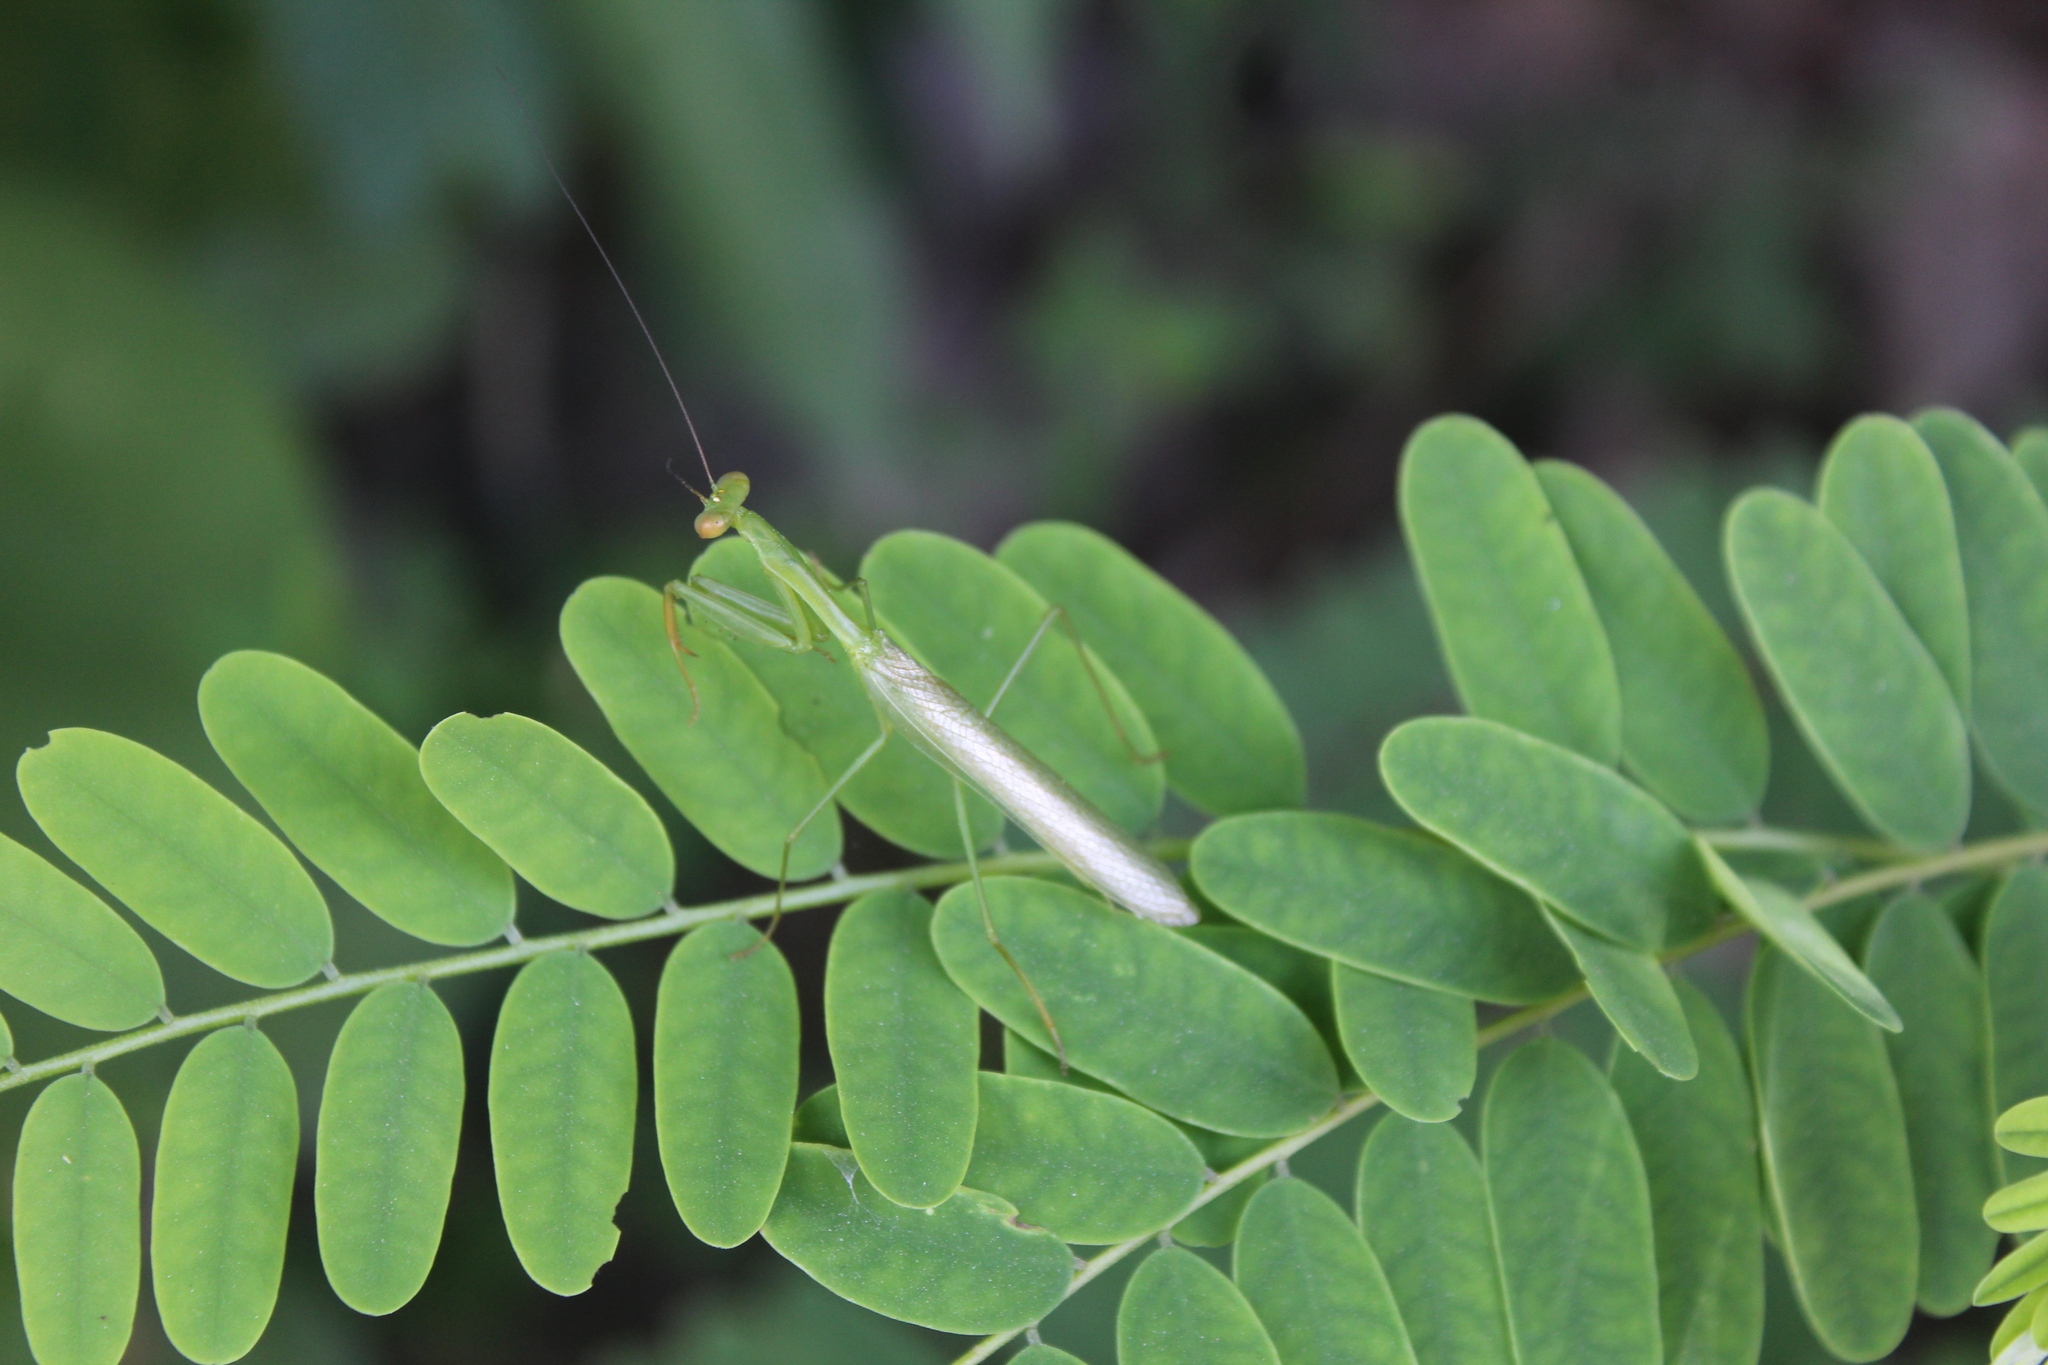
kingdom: Animalia
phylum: Arthropoda
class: Insecta
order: Mantodea
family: Mantidae
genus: Stagmomantis
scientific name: Stagmomantis fraterna
